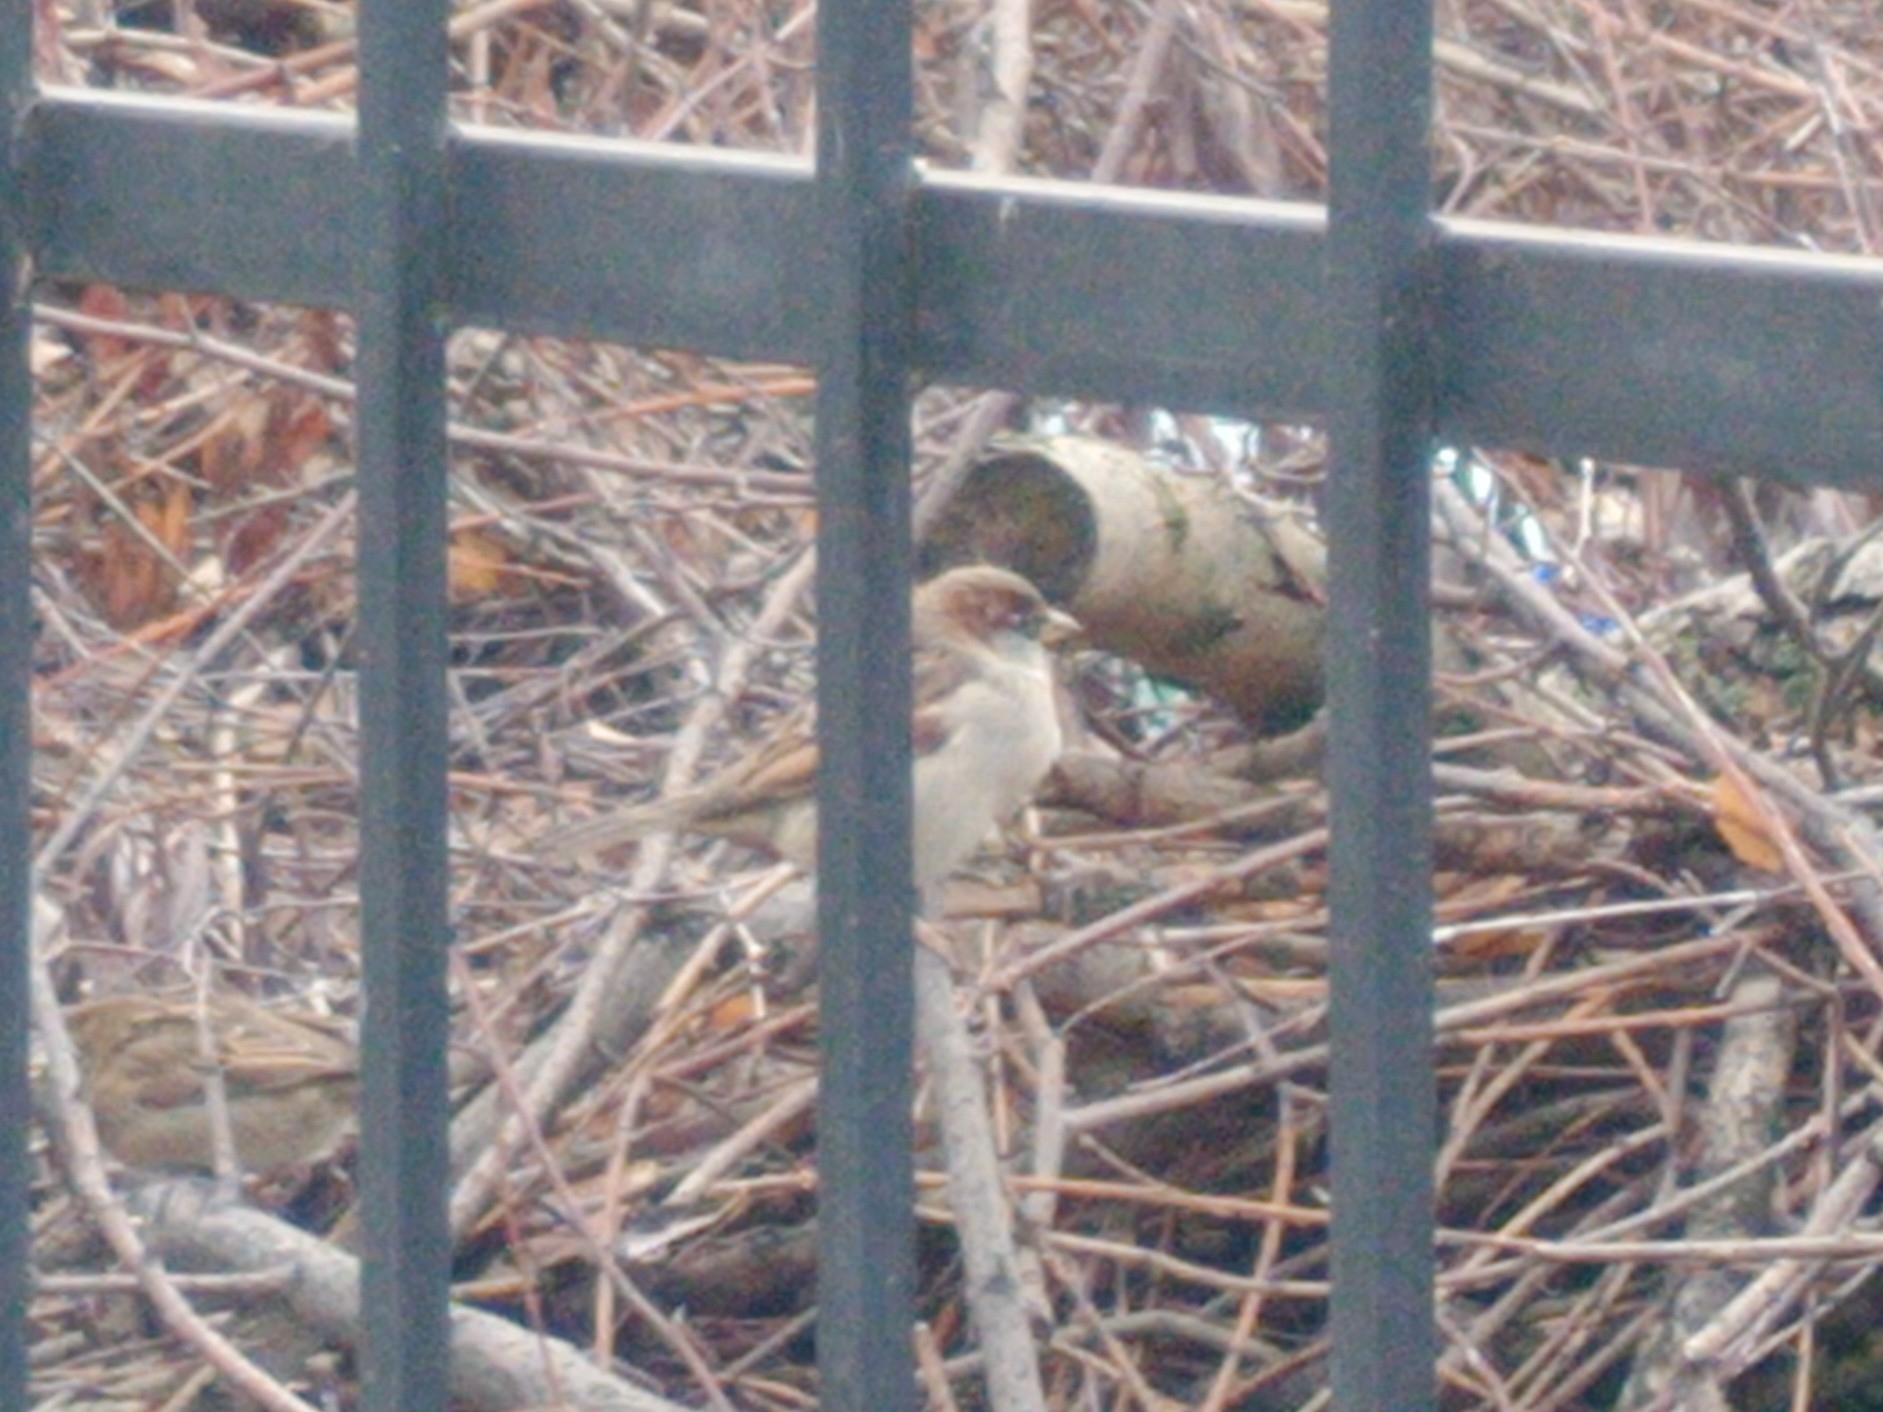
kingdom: Animalia
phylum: Chordata
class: Aves
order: Passeriformes
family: Passeridae
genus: Passer
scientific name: Passer domesticus
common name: House sparrow
